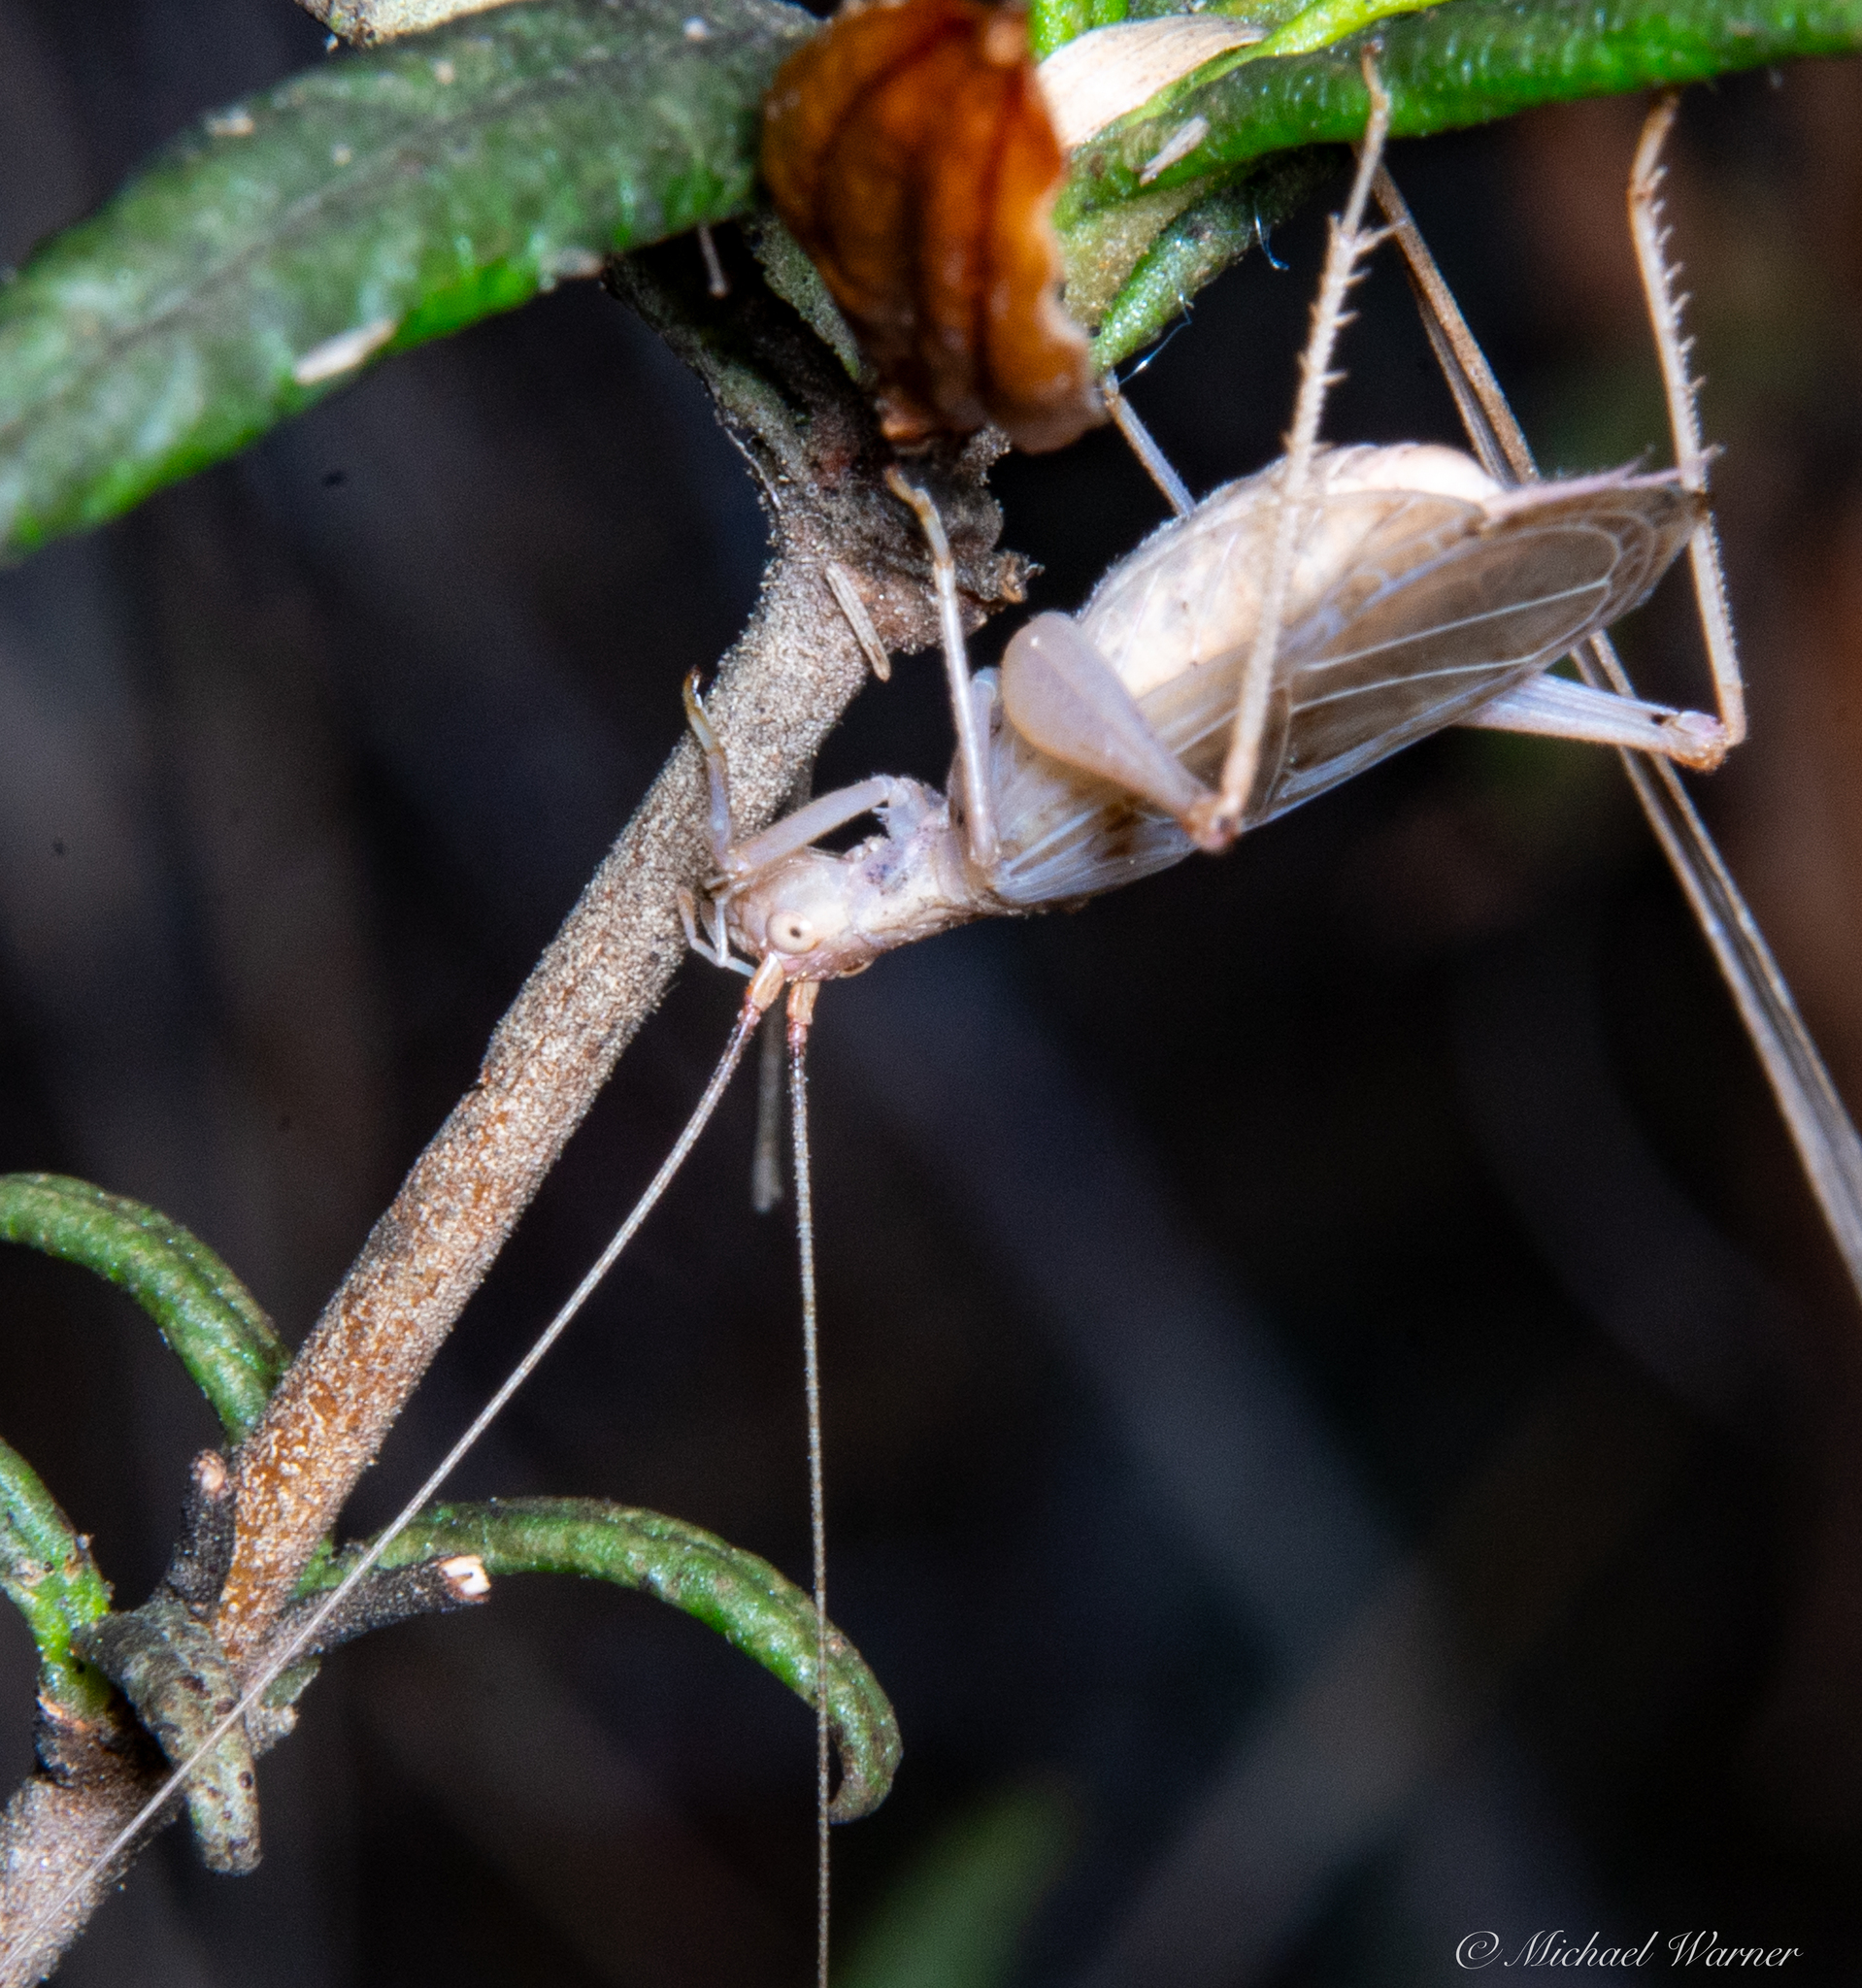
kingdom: Animalia
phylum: Arthropoda
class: Insecta
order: Orthoptera
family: Gryllidae
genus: Oecanthus
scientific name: Oecanthus californicus
